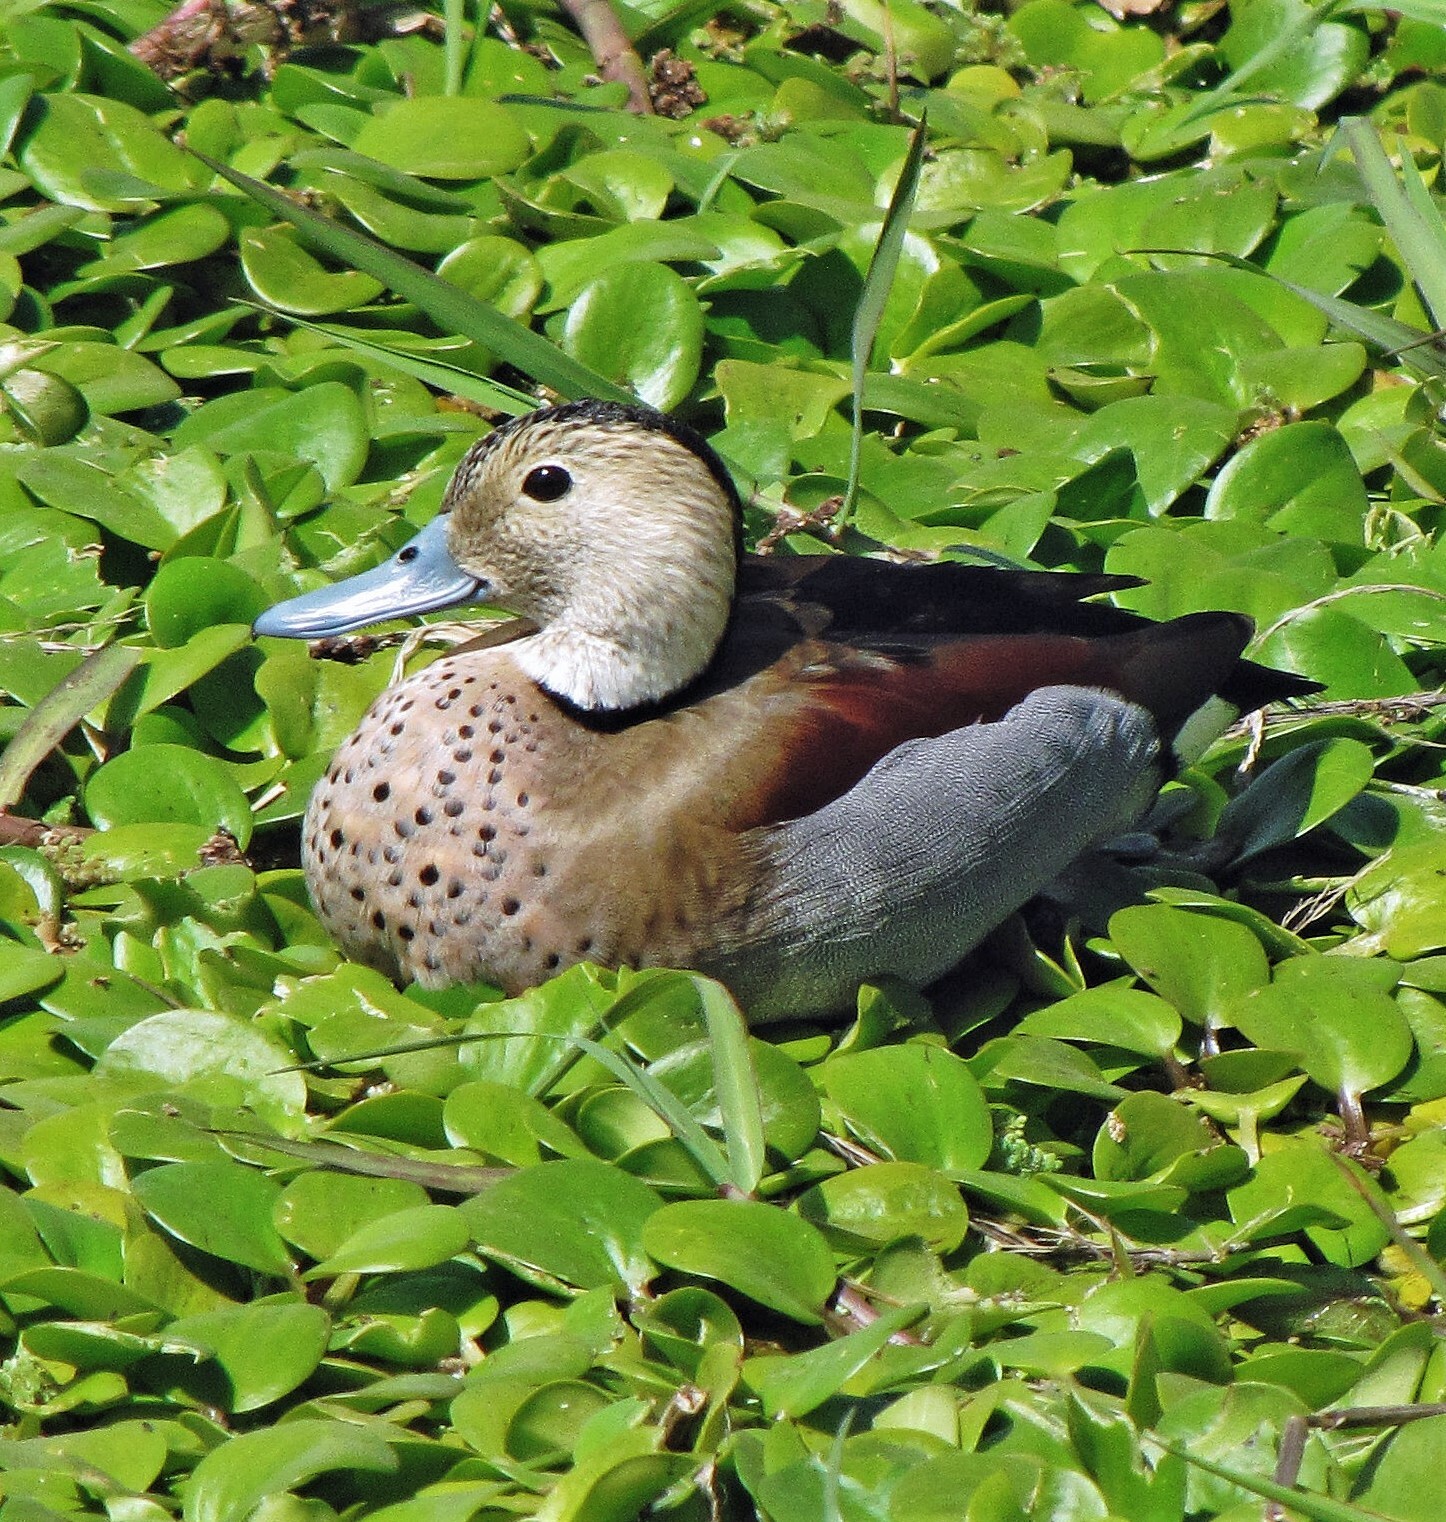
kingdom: Animalia
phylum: Chordata
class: Aves
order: Anseriformes
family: Anatidae
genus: Callonetta
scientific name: Callonetta leucophrys
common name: Ringed teal
